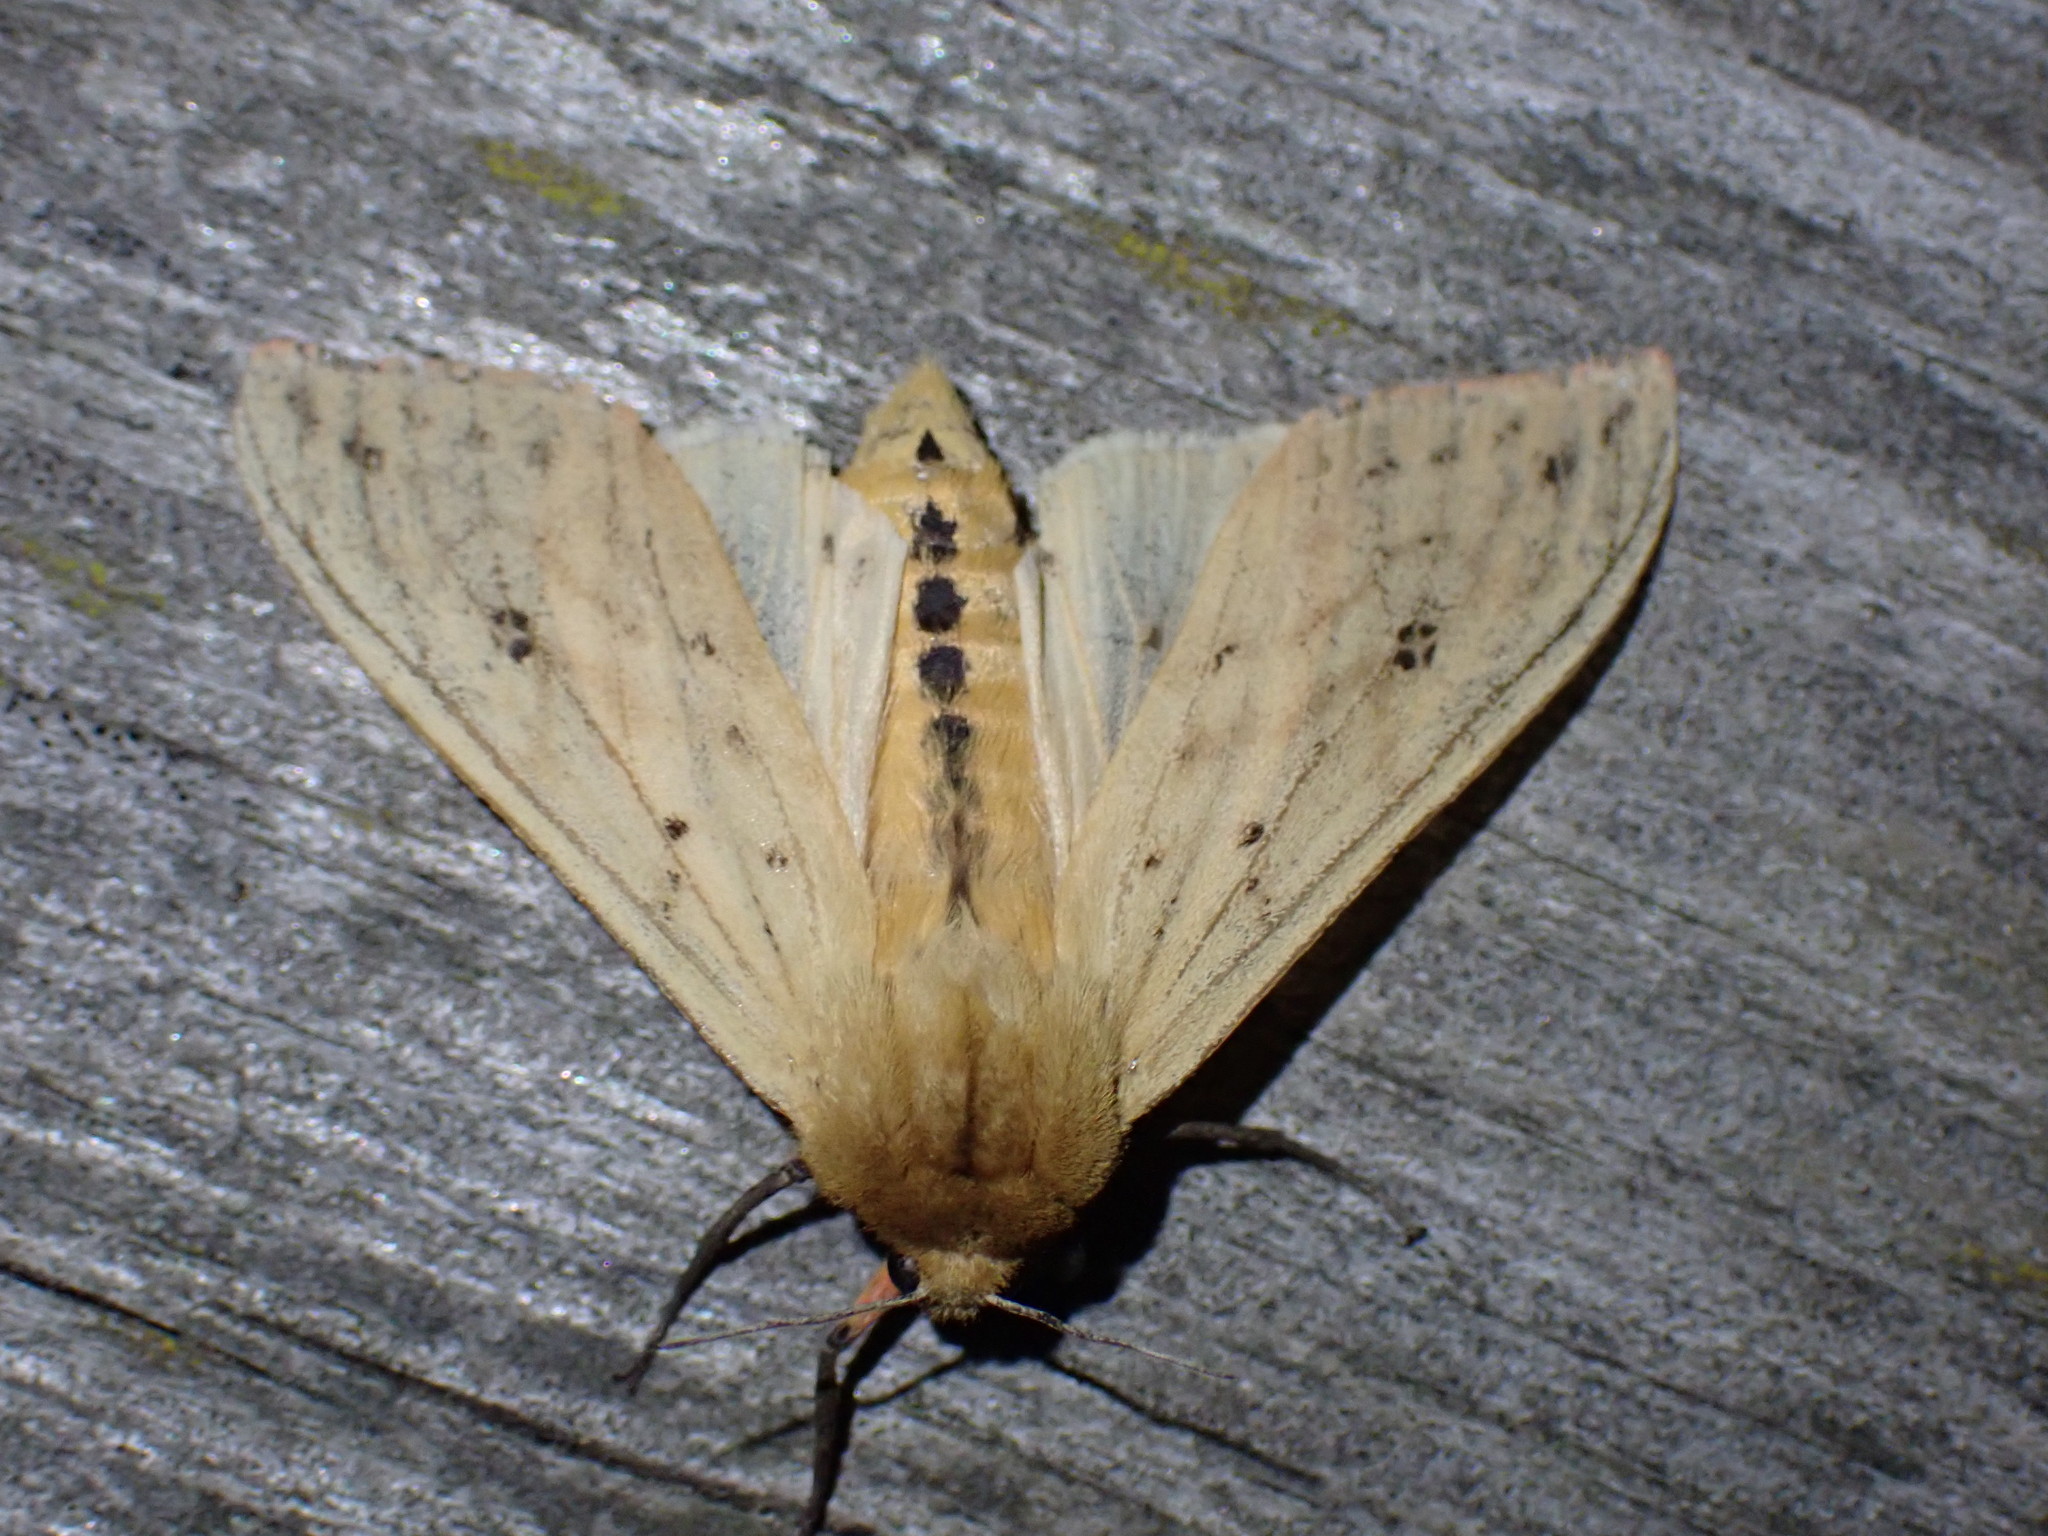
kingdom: Animalia
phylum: Arthropoda
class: Insecta
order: Lepidoptera
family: Erebidae
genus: Pyrrharctia
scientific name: Pyrrharctia isabella
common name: Isabella tiger moth
